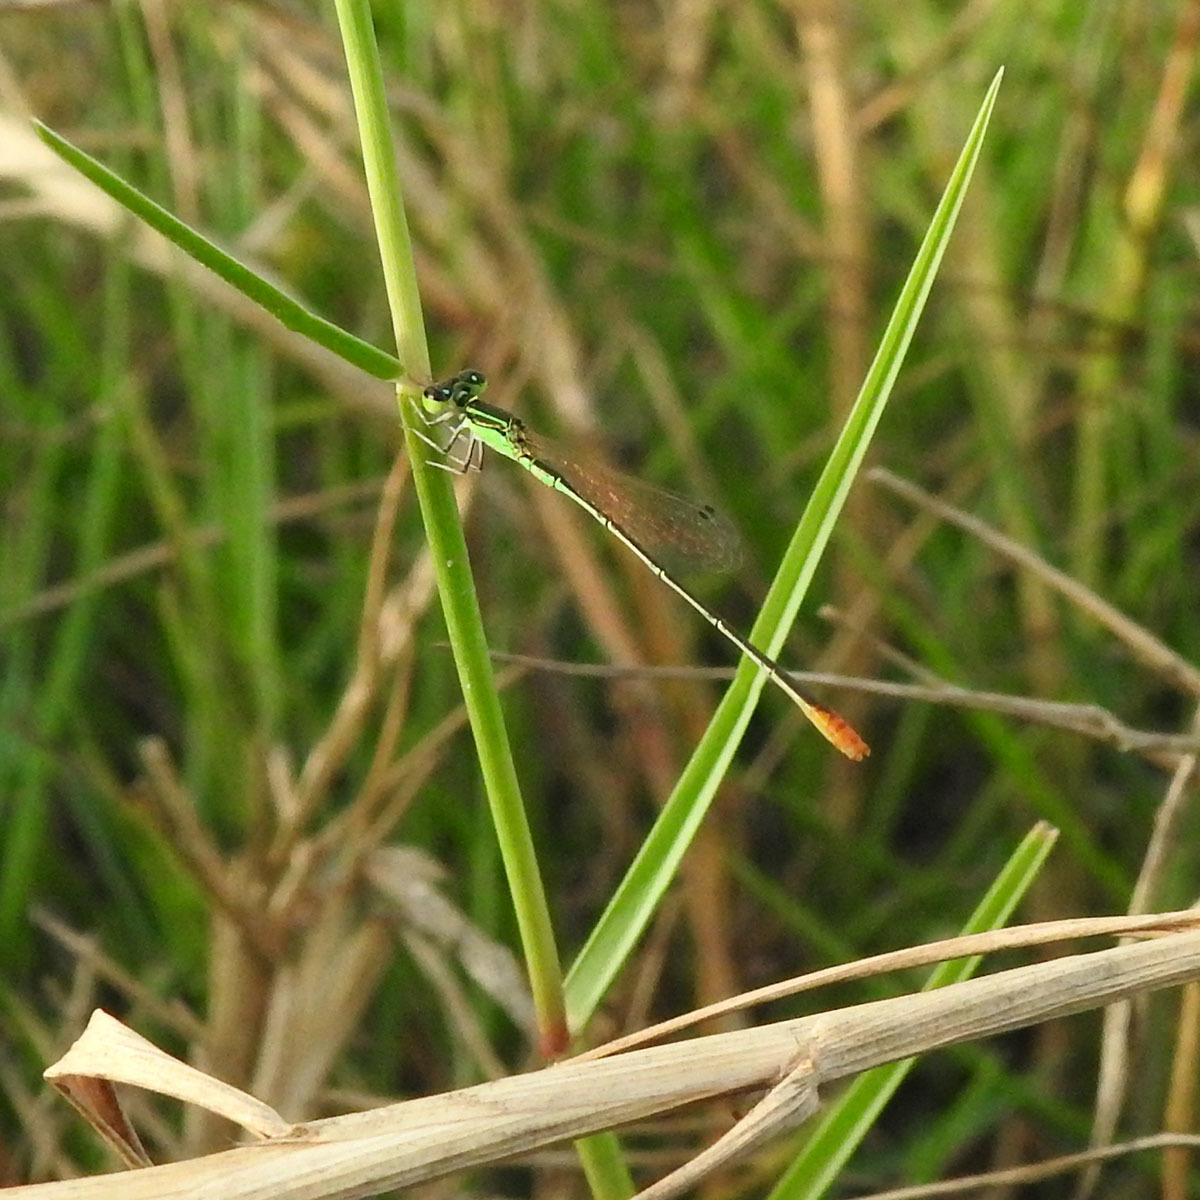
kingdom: Animalia
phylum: Arthropoda
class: Insecta
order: Odonata
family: Coenagrionidae
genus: Agriocnemis
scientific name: Agriocnemis pygmaea
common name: Pygmy wisp
